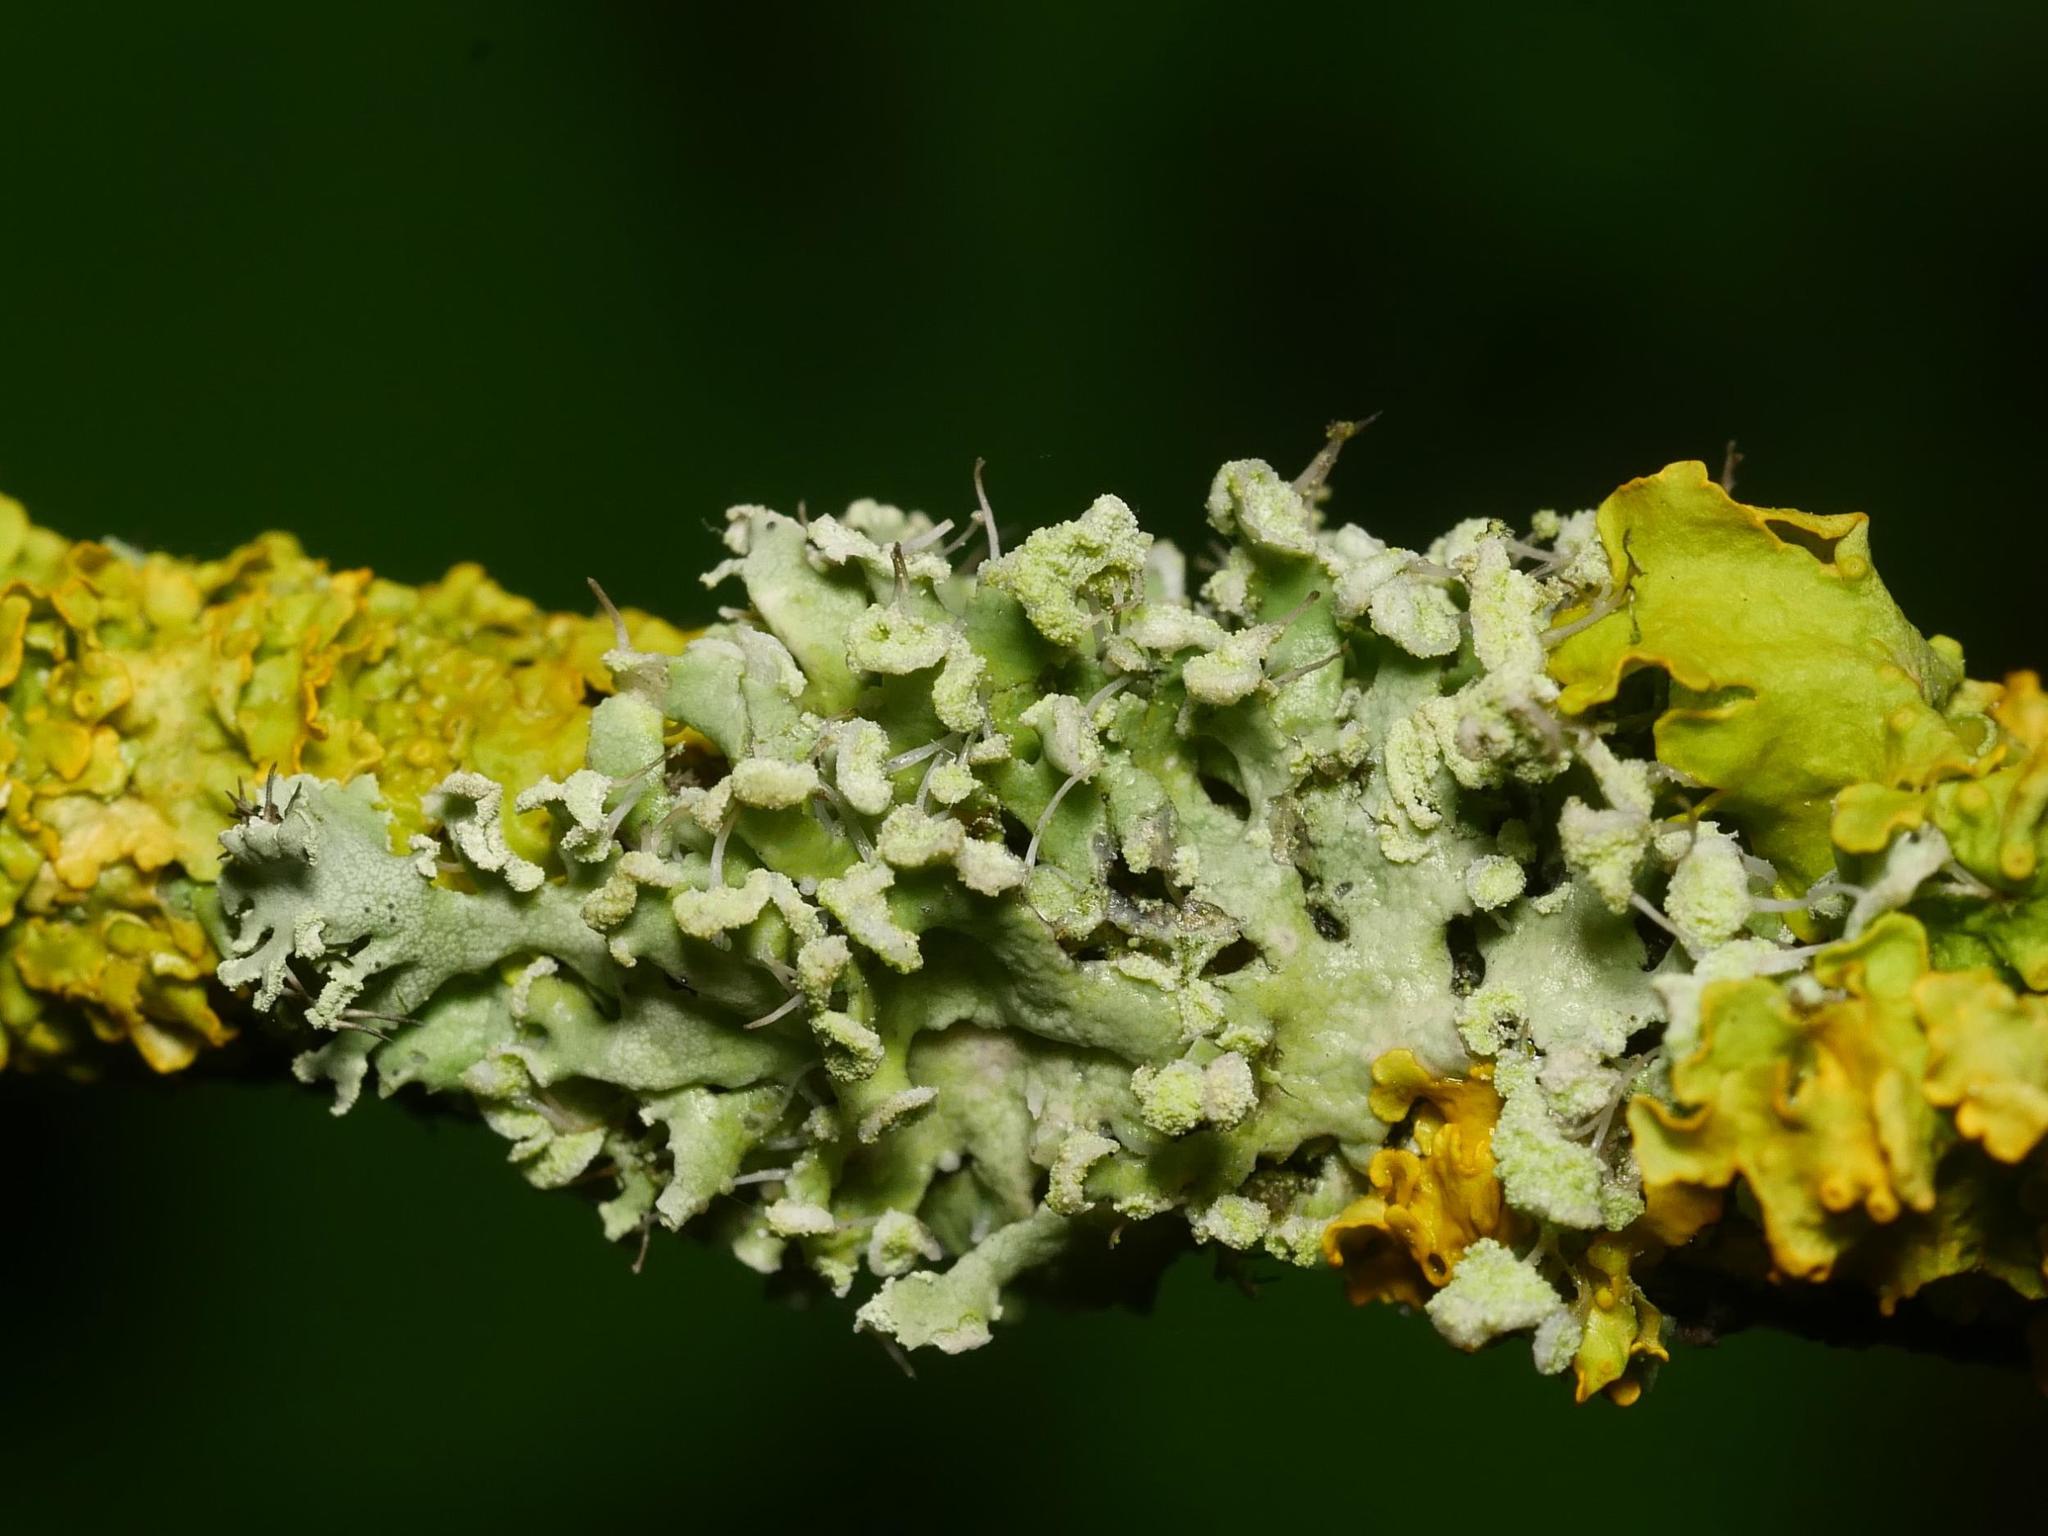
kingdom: Fungi
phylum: Ascomycota
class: Lecanoromycetes
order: Caliciales
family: Physciaceae
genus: Physcia
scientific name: Physcia adscendens
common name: Hooded rosette lichen
